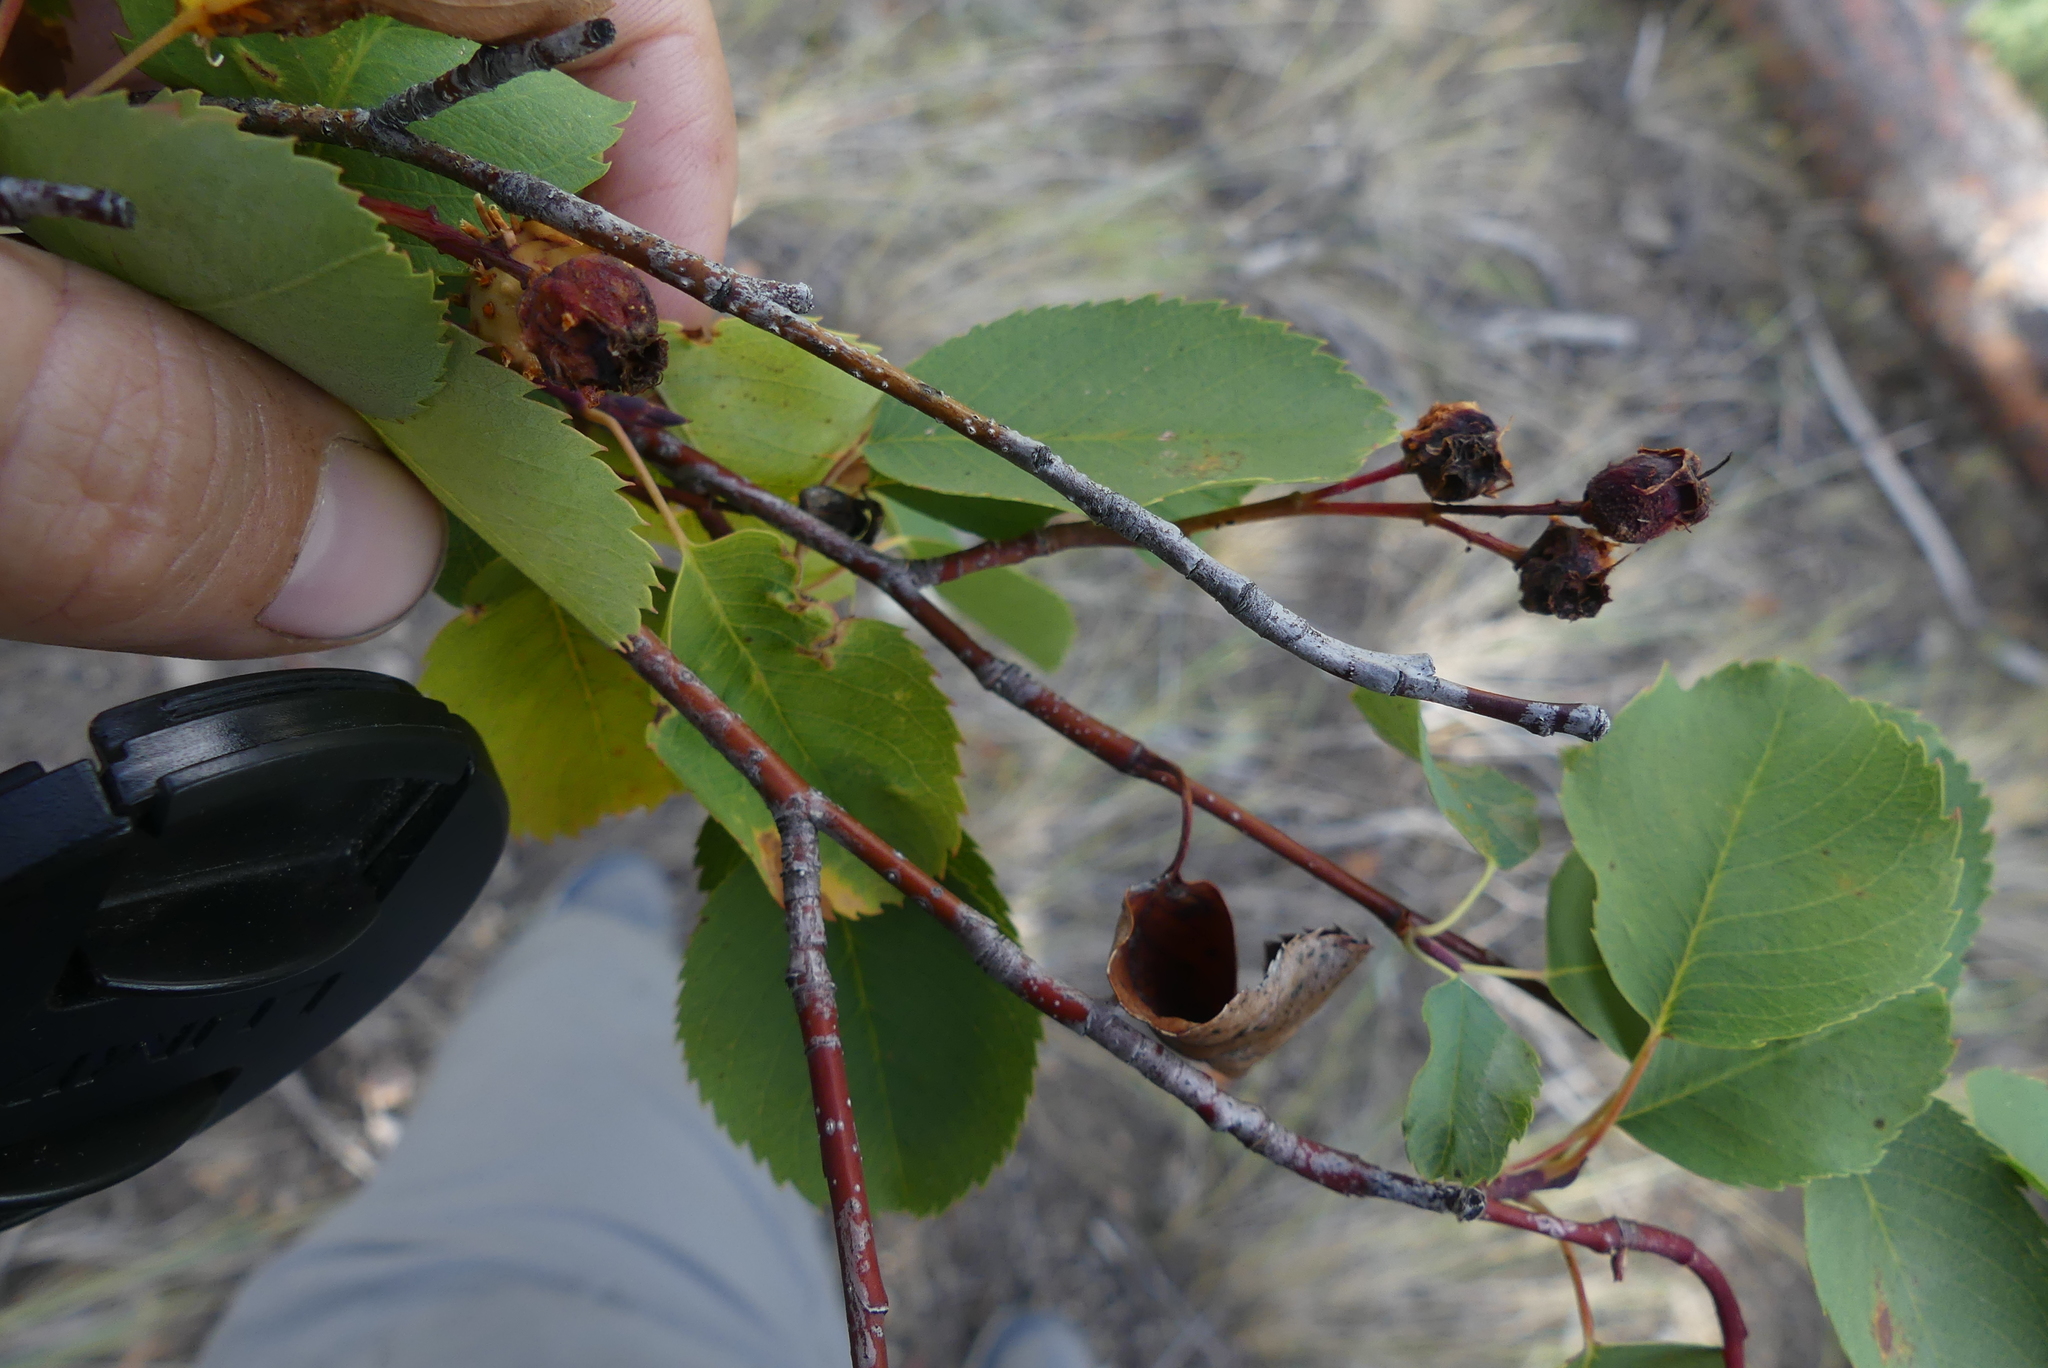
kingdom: Plantae
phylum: Tracheophyta
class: Magnoliopsida
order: Rosales
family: Rosaceae
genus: Amelanchier
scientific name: Amelanchier alnifolia
